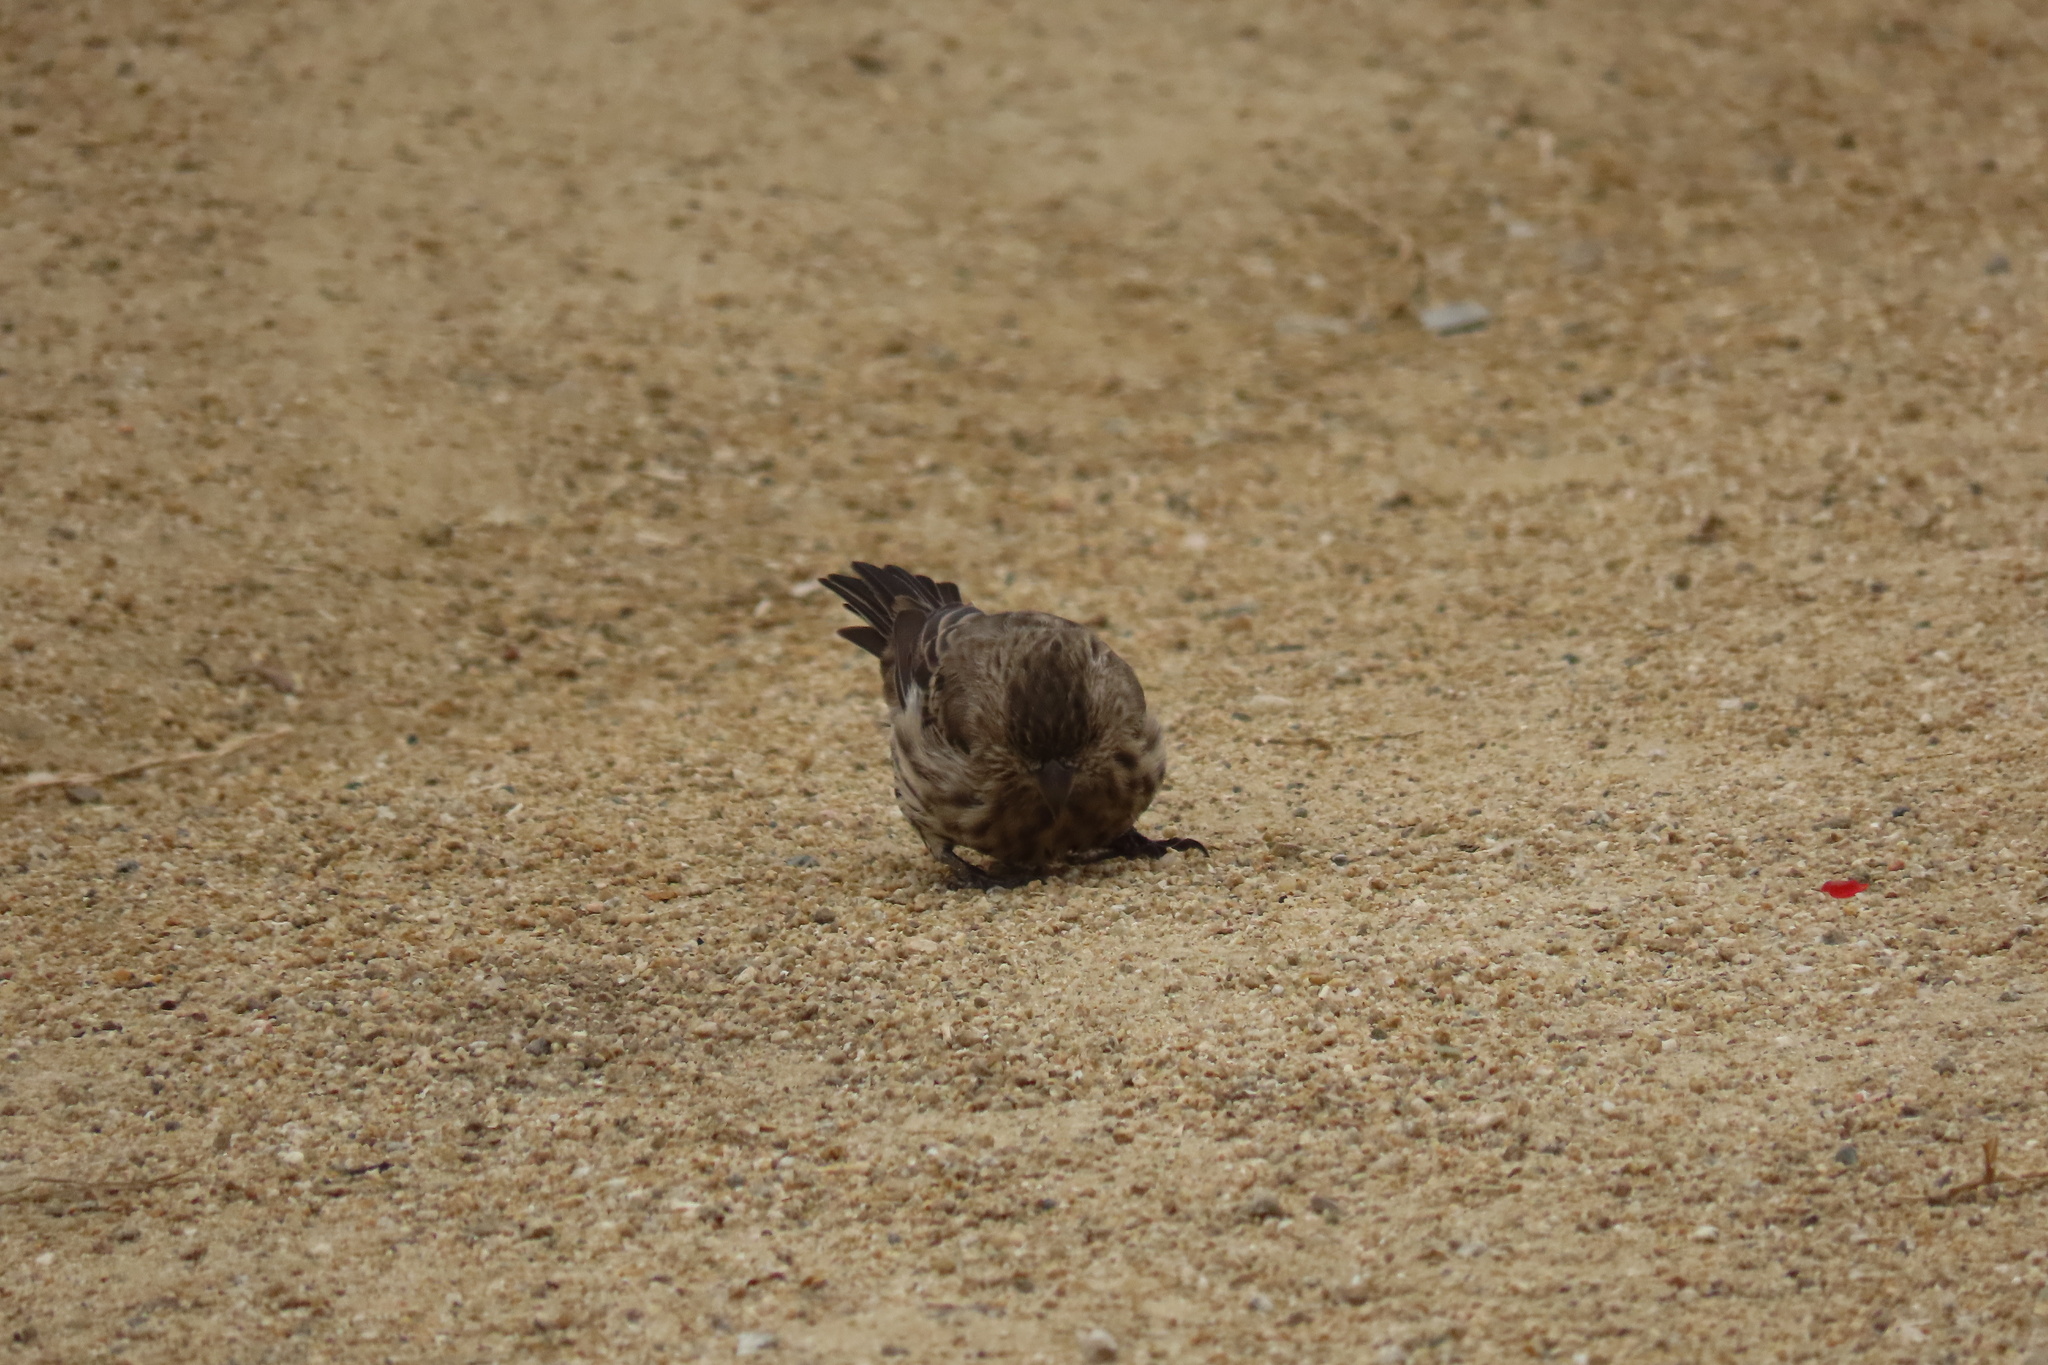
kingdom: Animalia
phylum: Chordata
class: Aves
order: Passeriformes
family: Fringillidae
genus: Haemorhous
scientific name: Haemorhous mexicanus
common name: House finch
